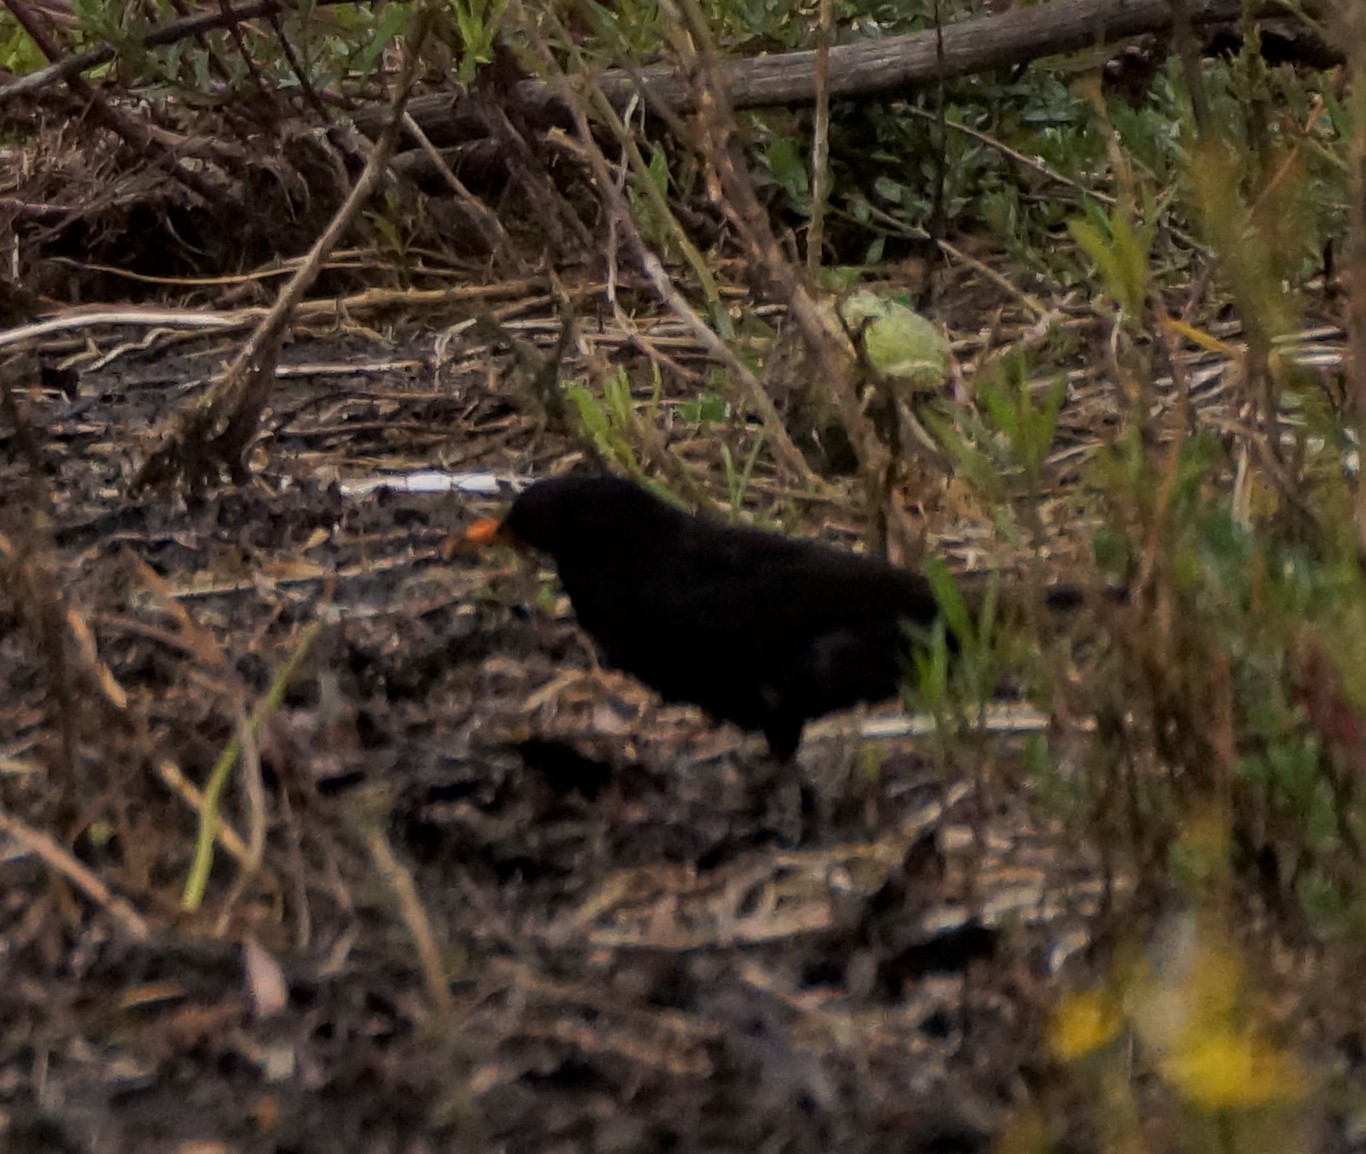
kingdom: Animalia
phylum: Chordata
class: Aves
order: Passeriformes
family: Turdidae
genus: Turdus
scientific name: Turdus merula
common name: Common blackbird
